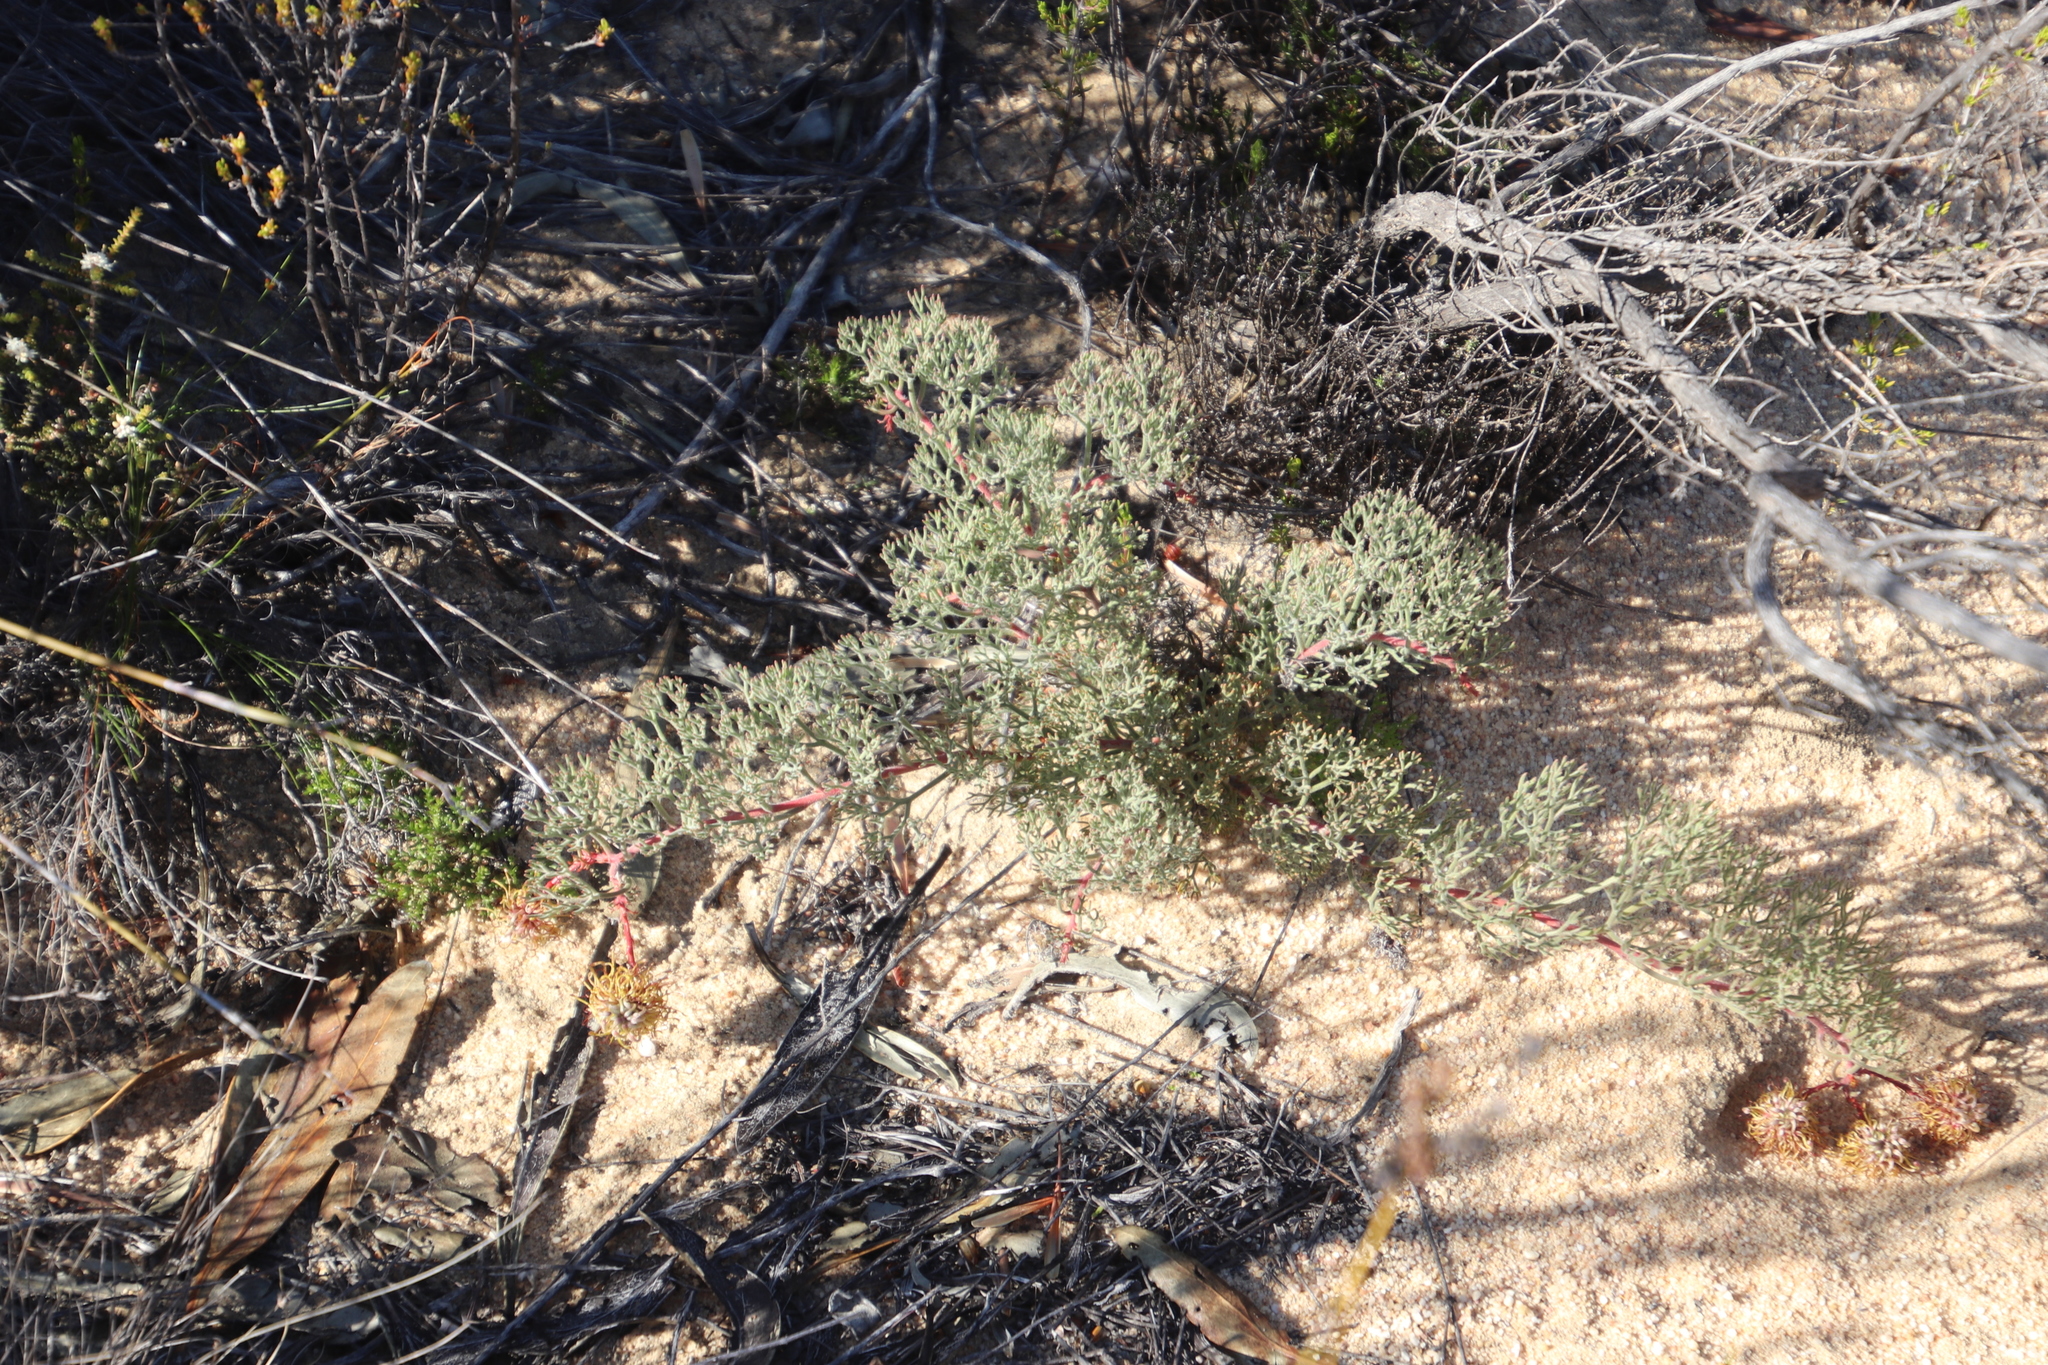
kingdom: Plantae
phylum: Tracheophyta
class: Magnoliopsida
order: Proteales
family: Proteaceae
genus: Serruria
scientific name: Serruria effusa
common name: Candelabra spiderhead
